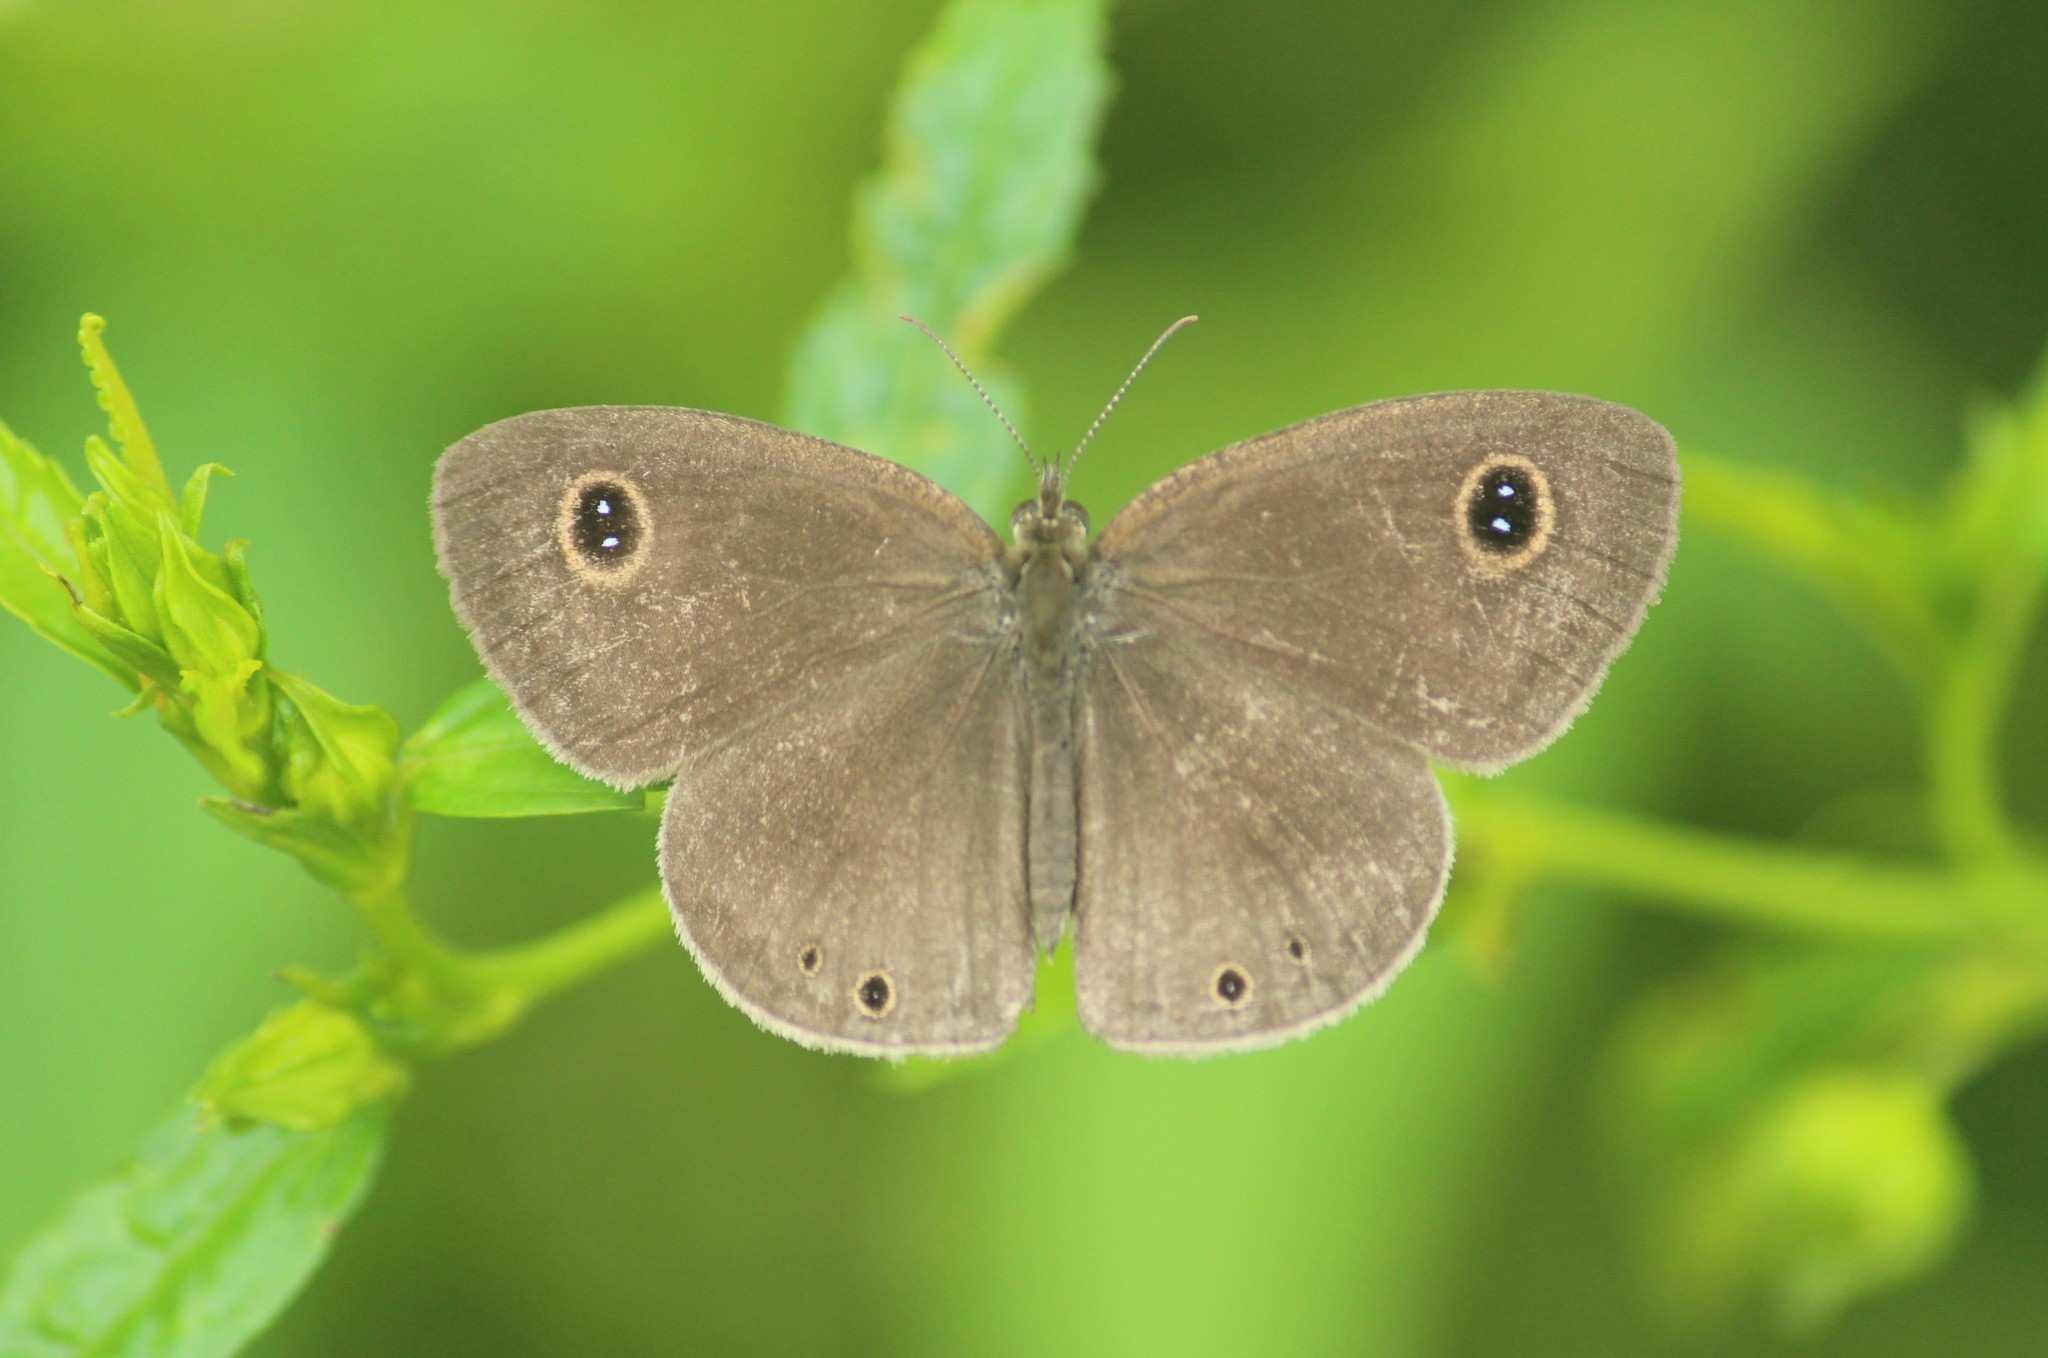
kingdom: Animalia
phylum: Arthropoda
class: Insecta
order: Lepidoptera
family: Nymphalidae
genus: Ypthima
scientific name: Ypthima huebneri
